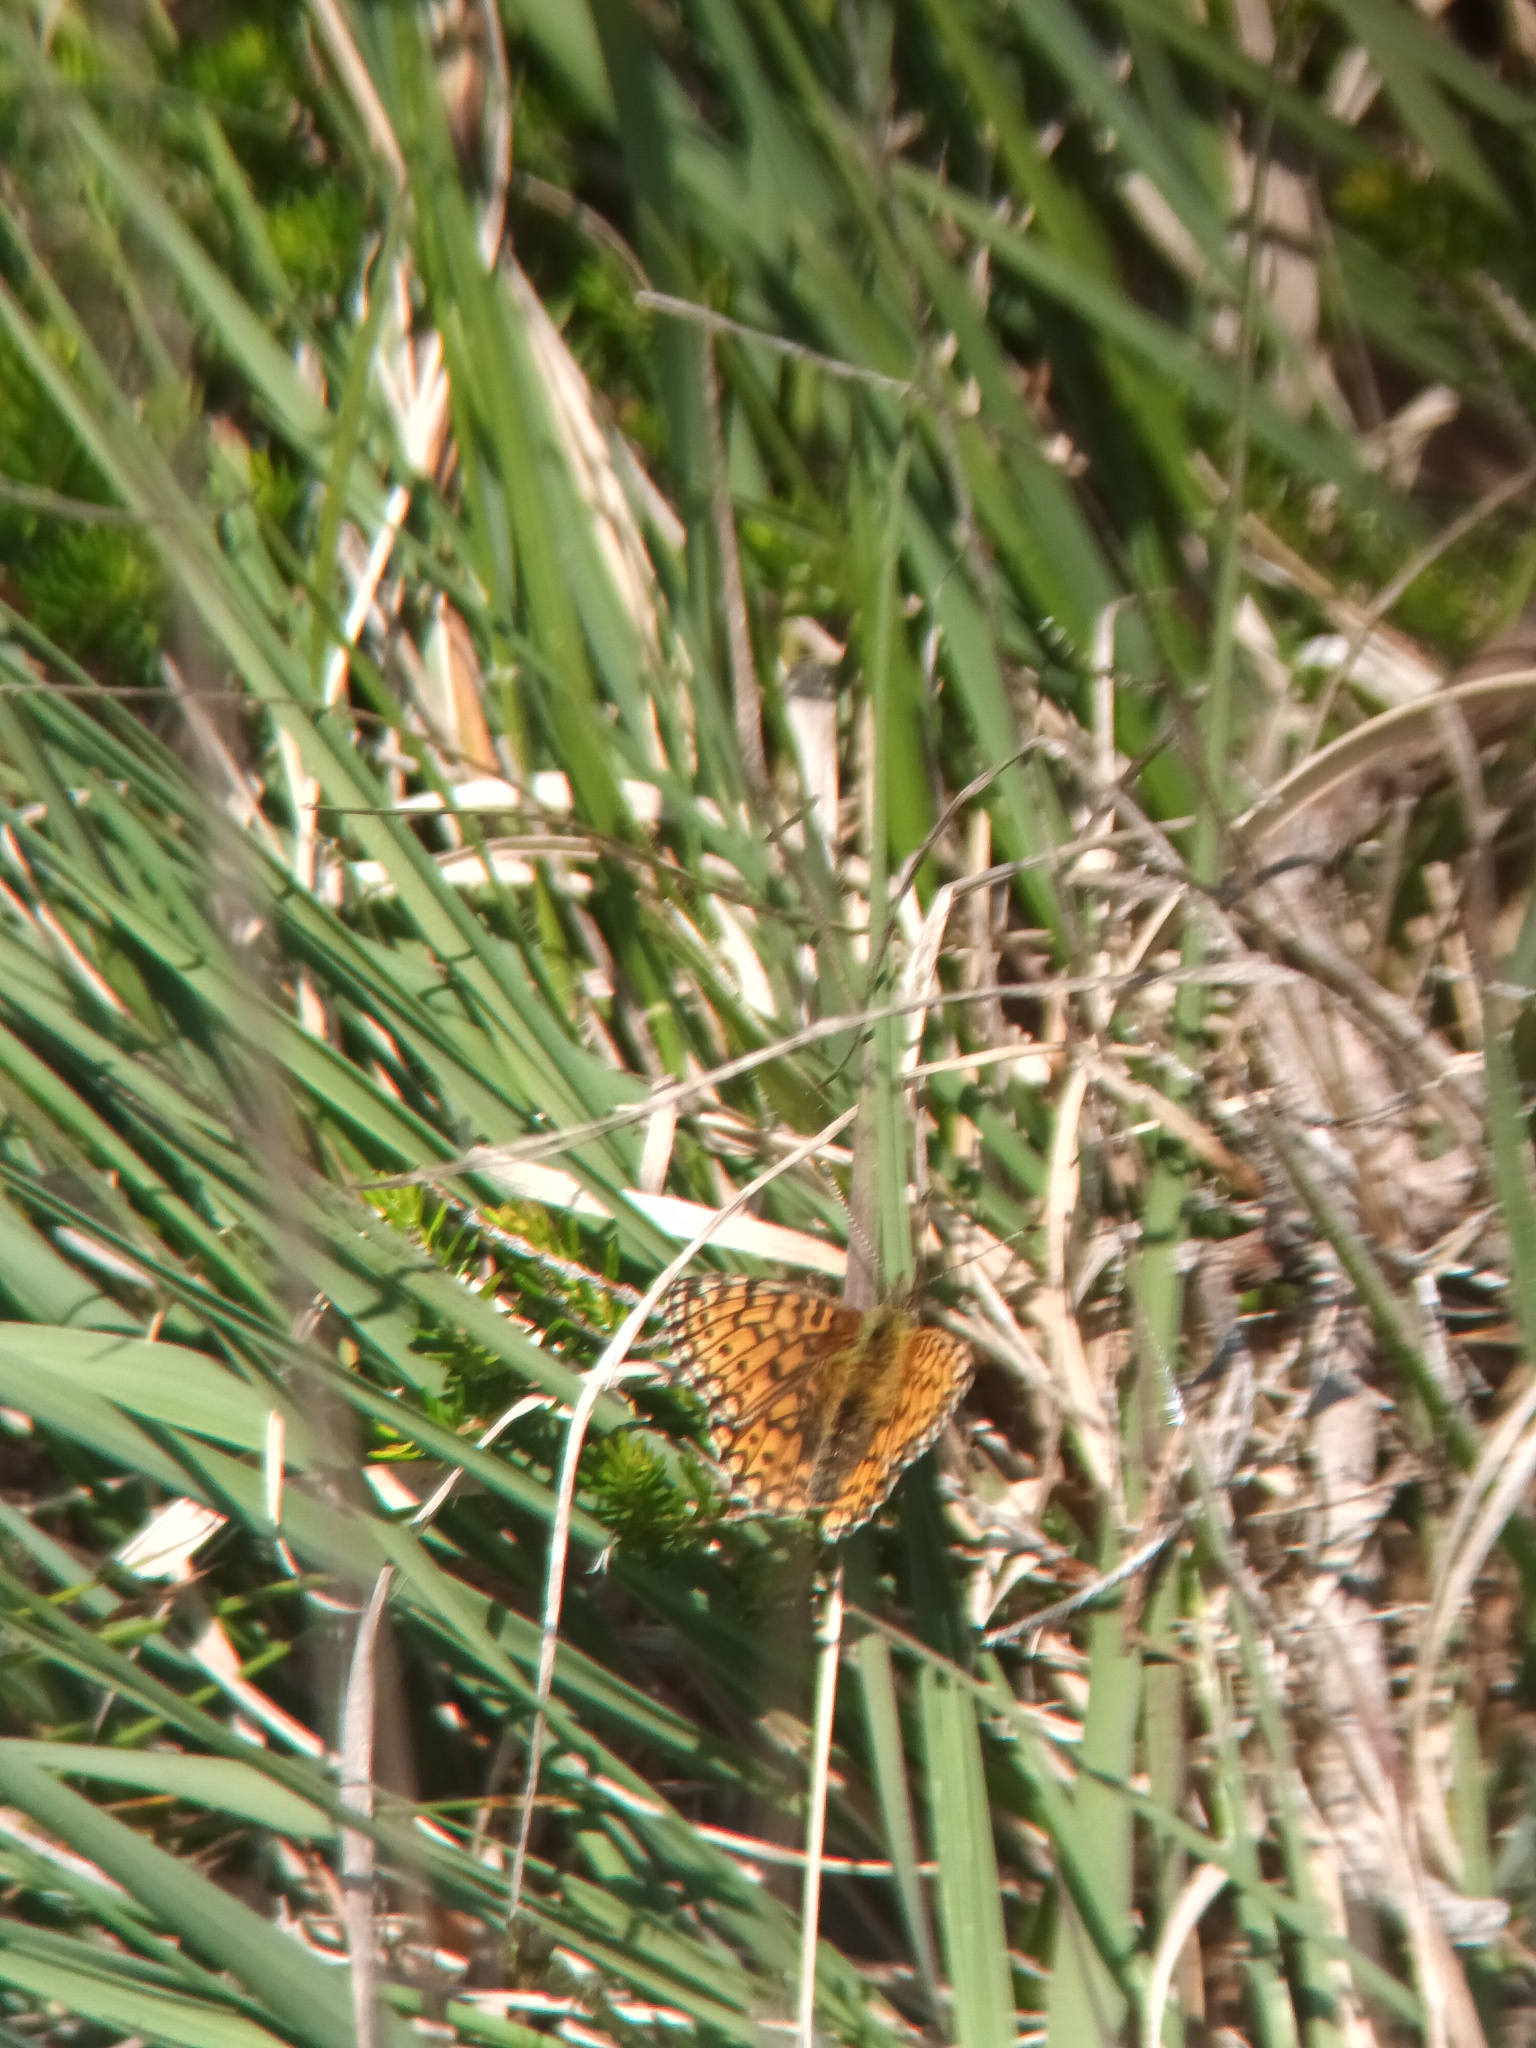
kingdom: Animalia
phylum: Arthropoda
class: Insecta
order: Lepidoptera
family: Nymphalidae
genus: Boloria
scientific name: Boloria selene
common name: Small pearl-bordered fritillary
